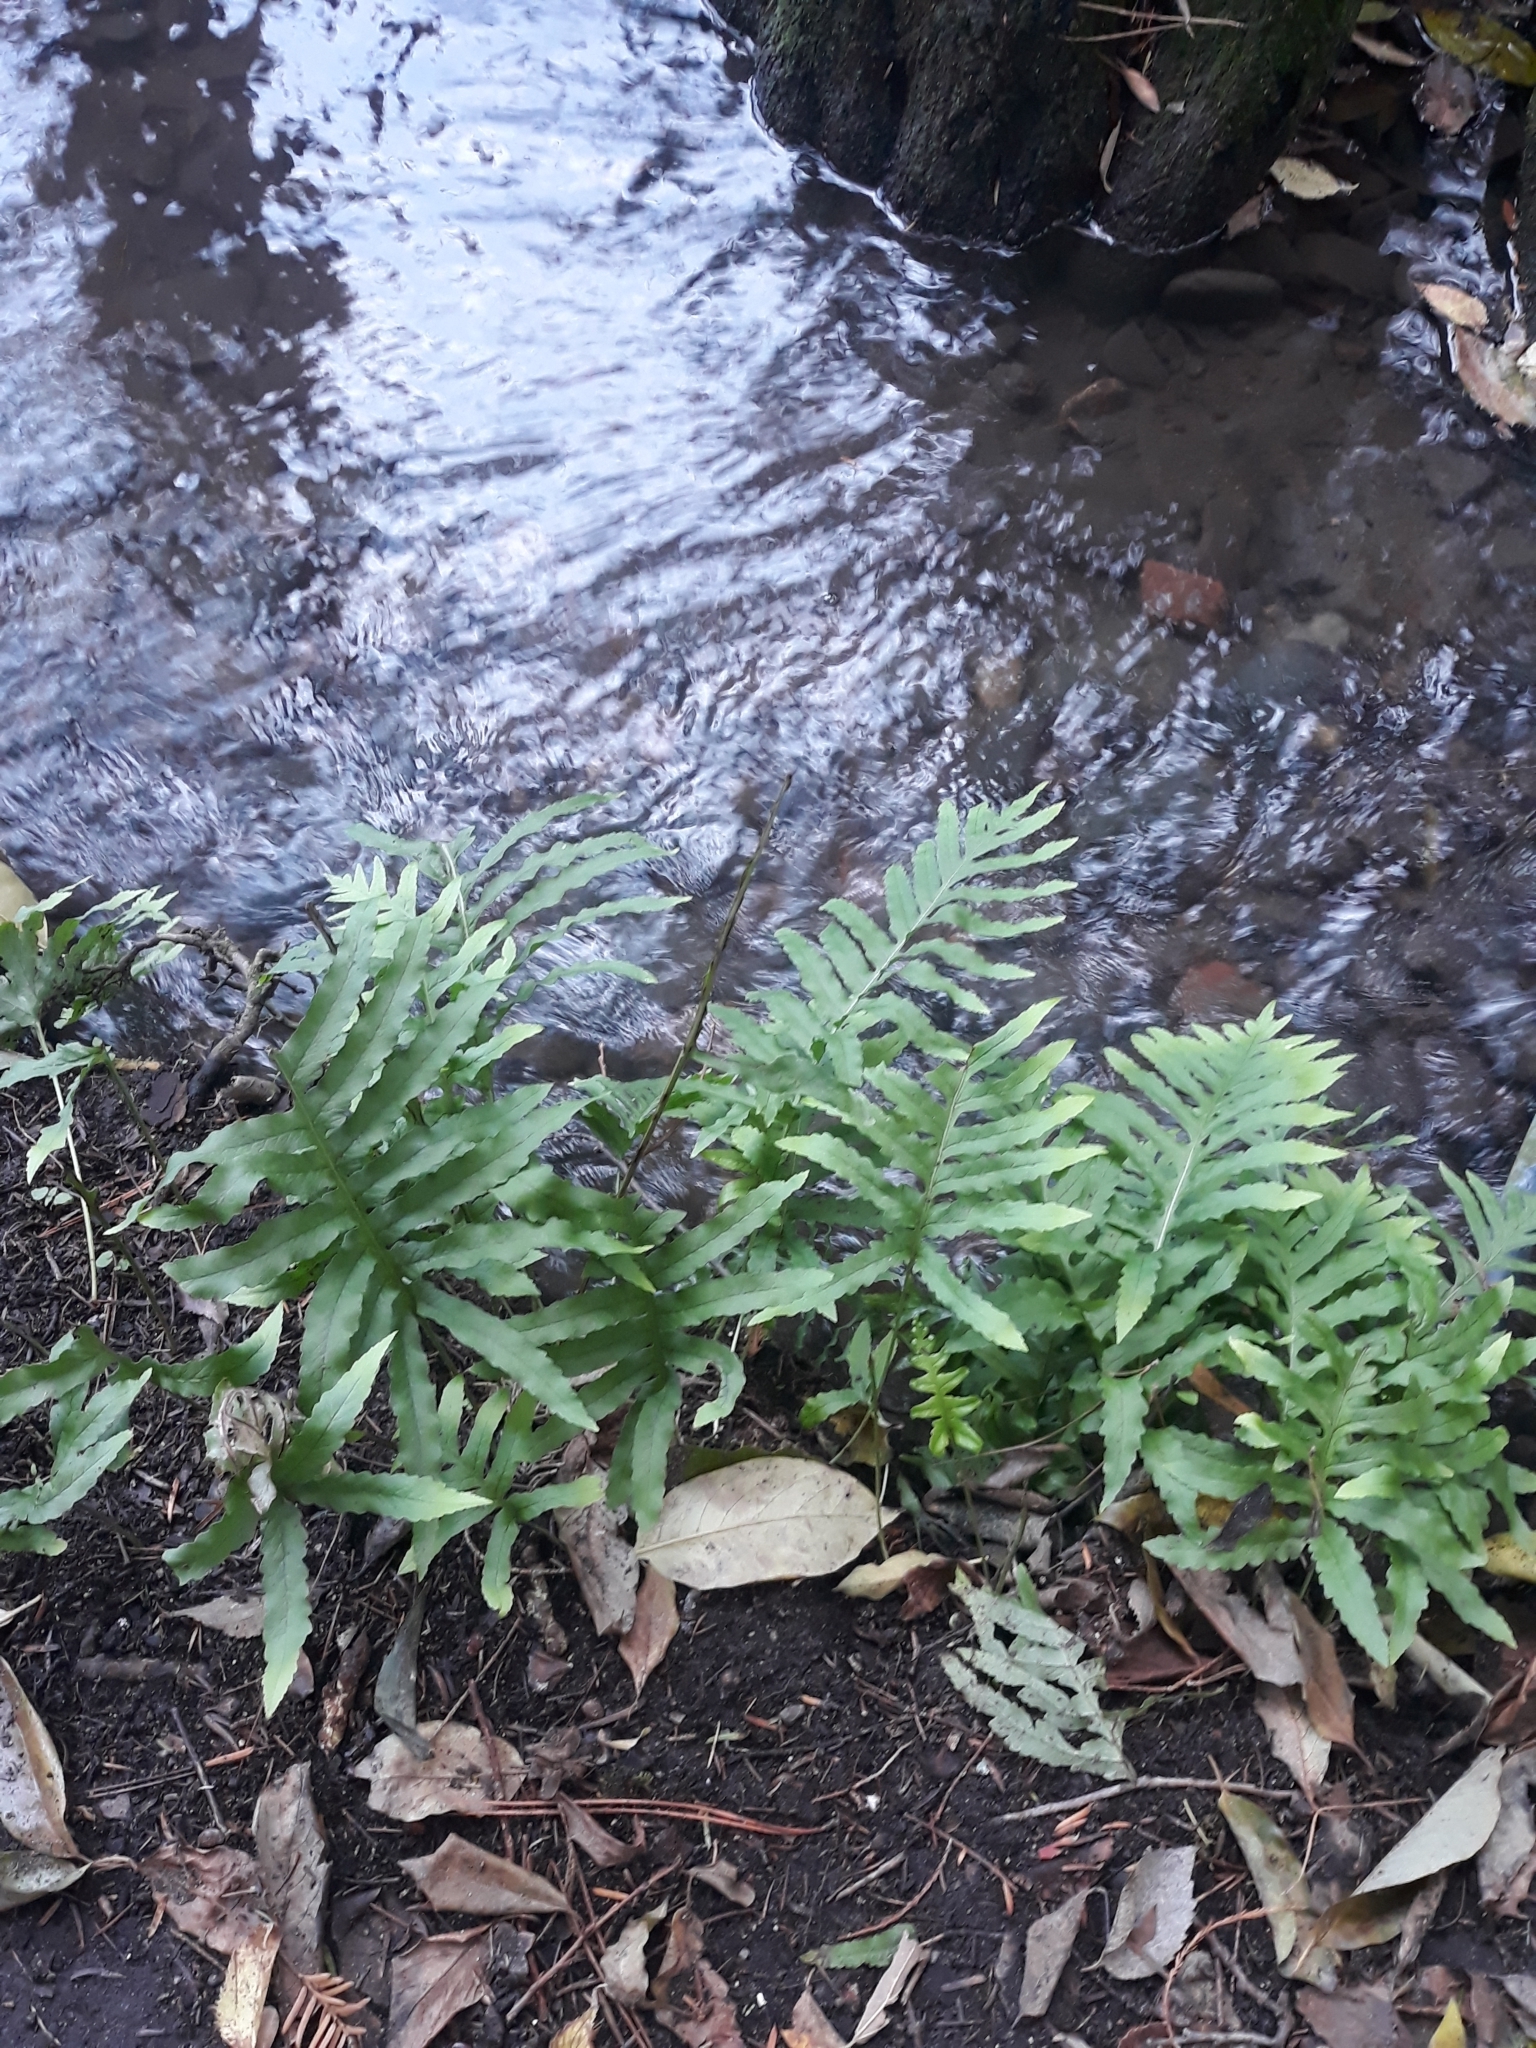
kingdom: Plantae
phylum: Tracheophyta
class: Polypodiopsida
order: Polypodiales
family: Polypodiaceae
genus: Polypodium
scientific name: Polypodium cambricum
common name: Southern polypody
